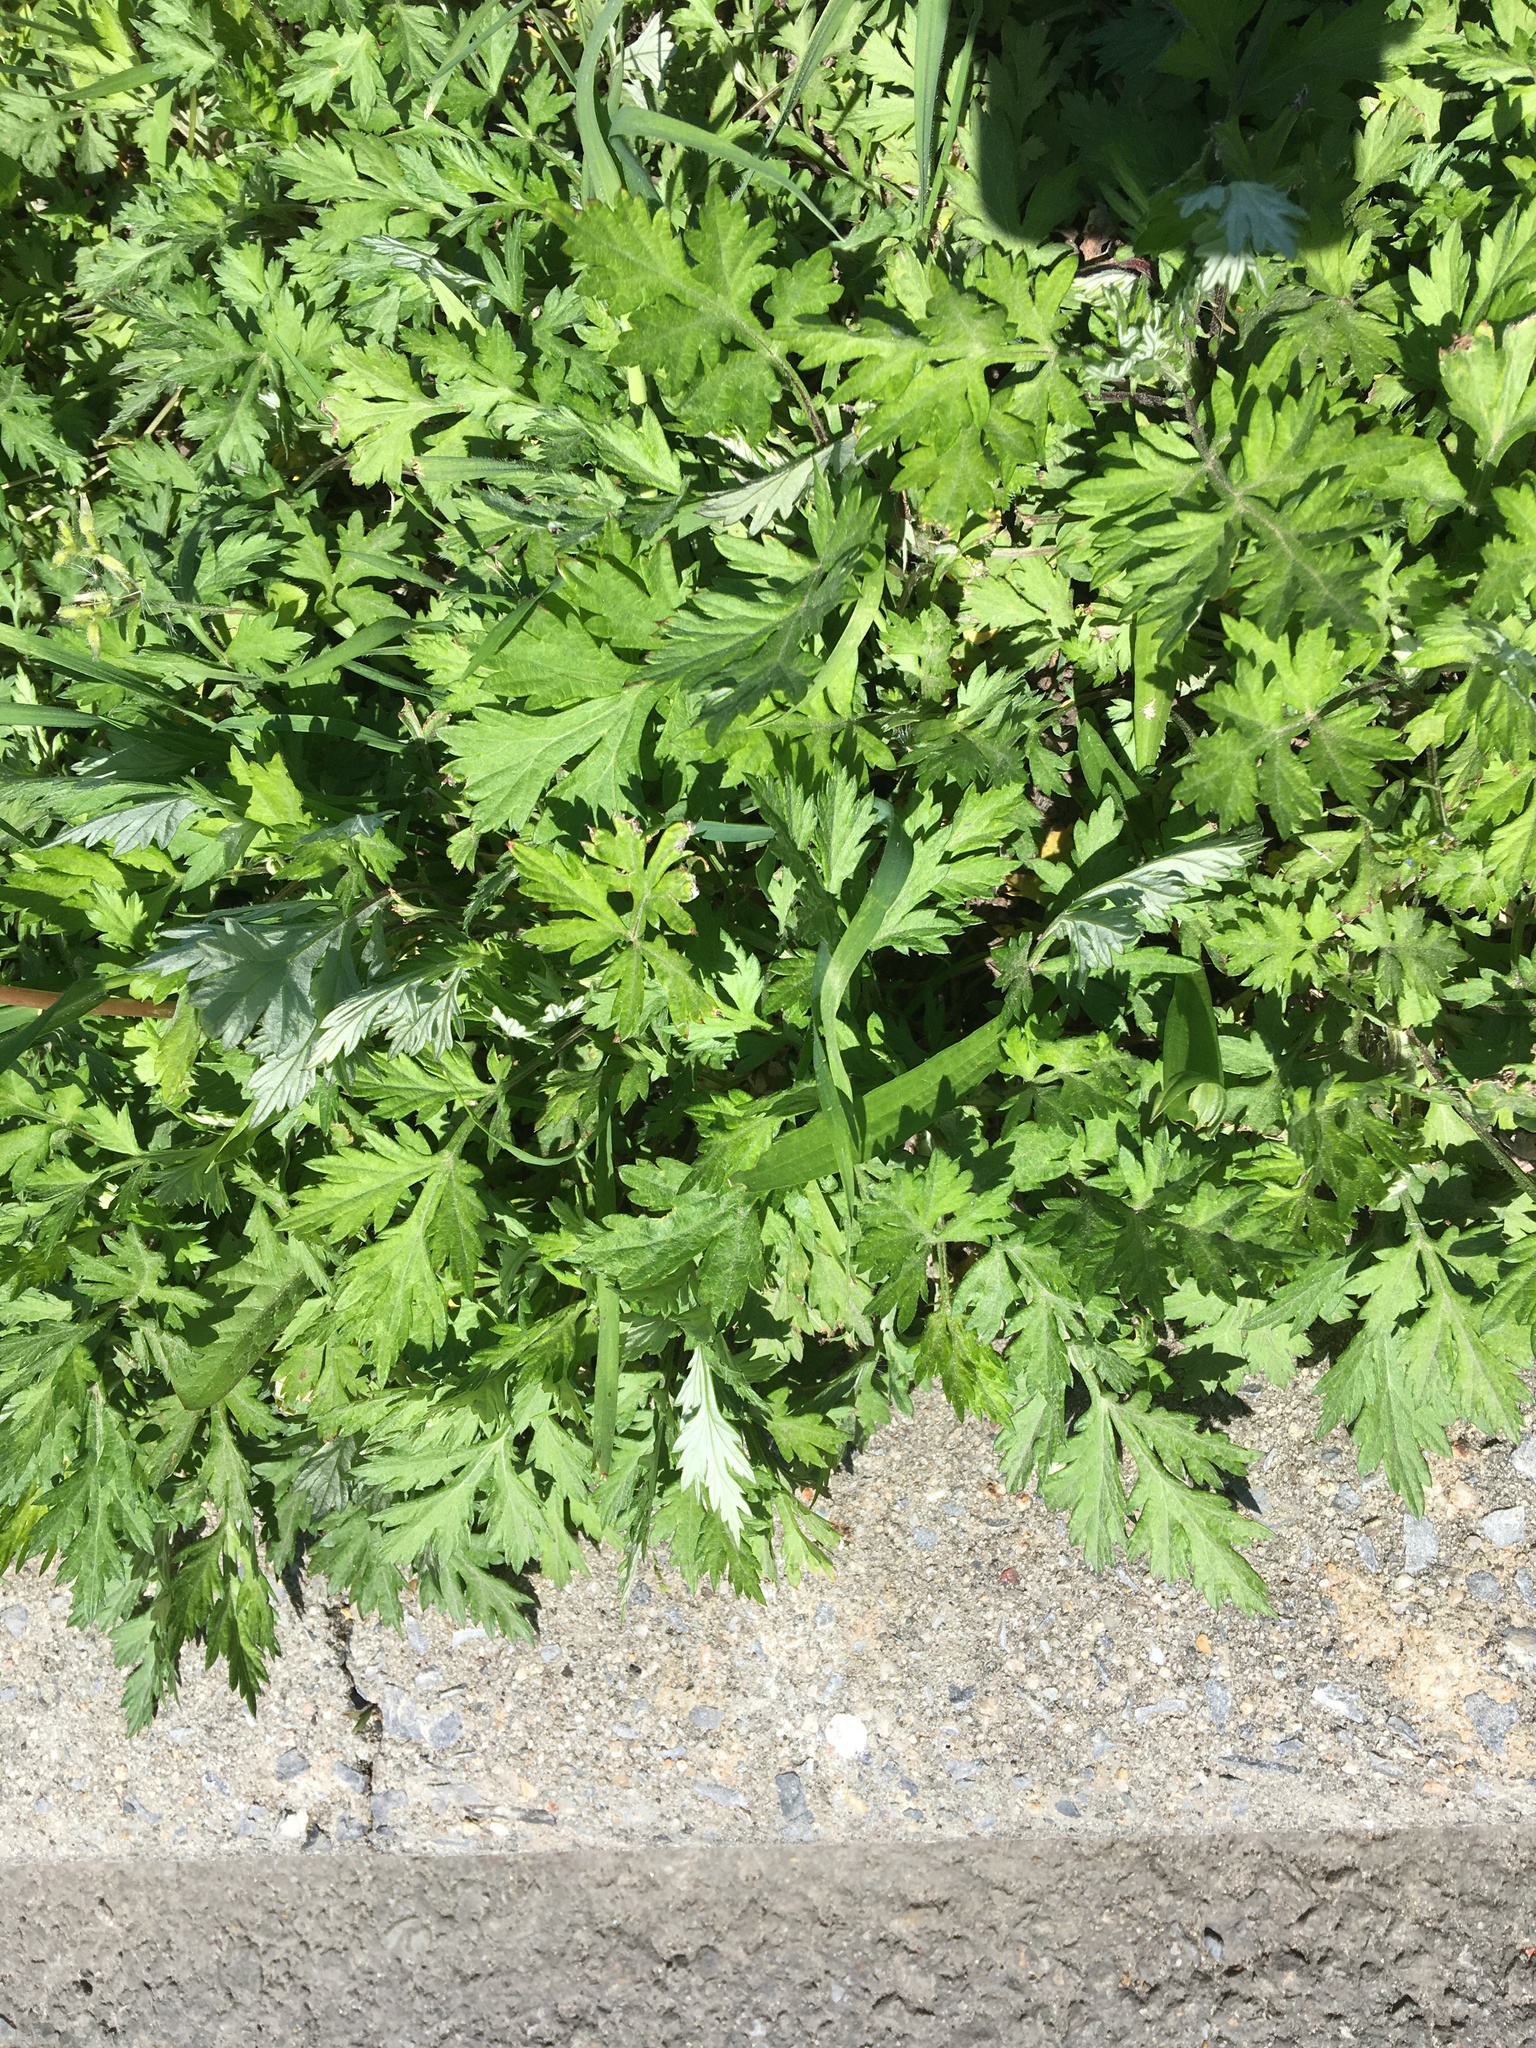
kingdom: Plantae
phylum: Tracheophyta
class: Magnoliopsida
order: Asterales
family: Asteraceae
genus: Artemisia
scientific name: Artemisia vulgaris
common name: Mugwort
